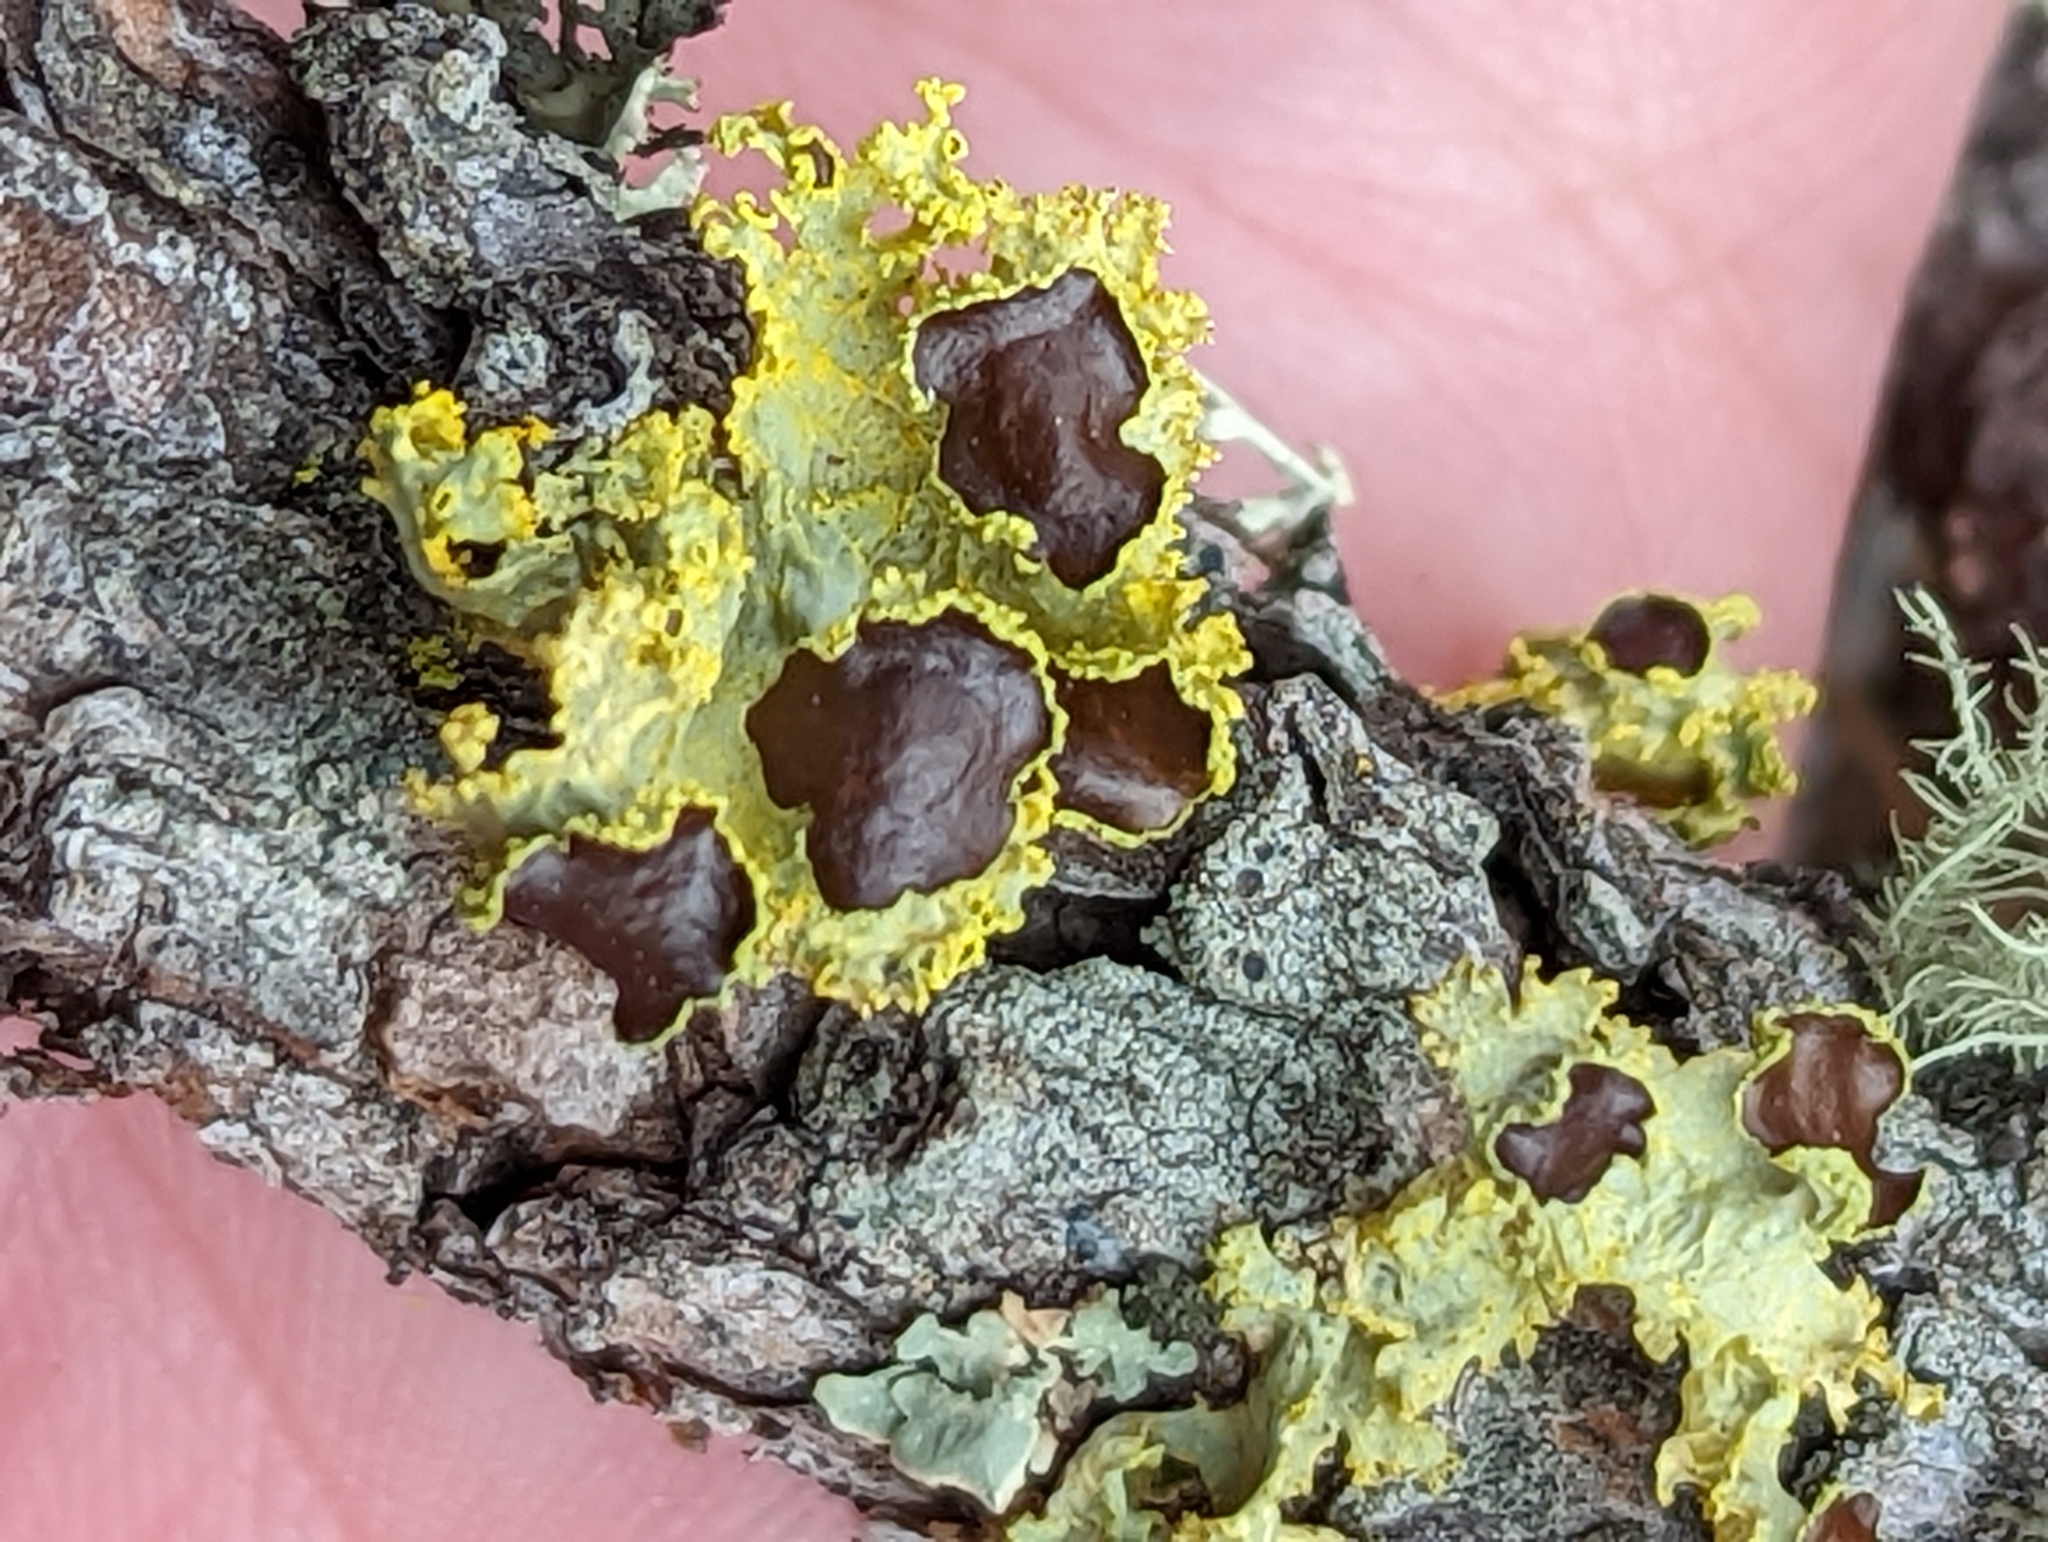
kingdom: Fungi
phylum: Ascomycota
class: Lecanoromycetes
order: Lecanorales
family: Parmeliaceae
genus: Vulpicida
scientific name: Vulpicida canadensis
